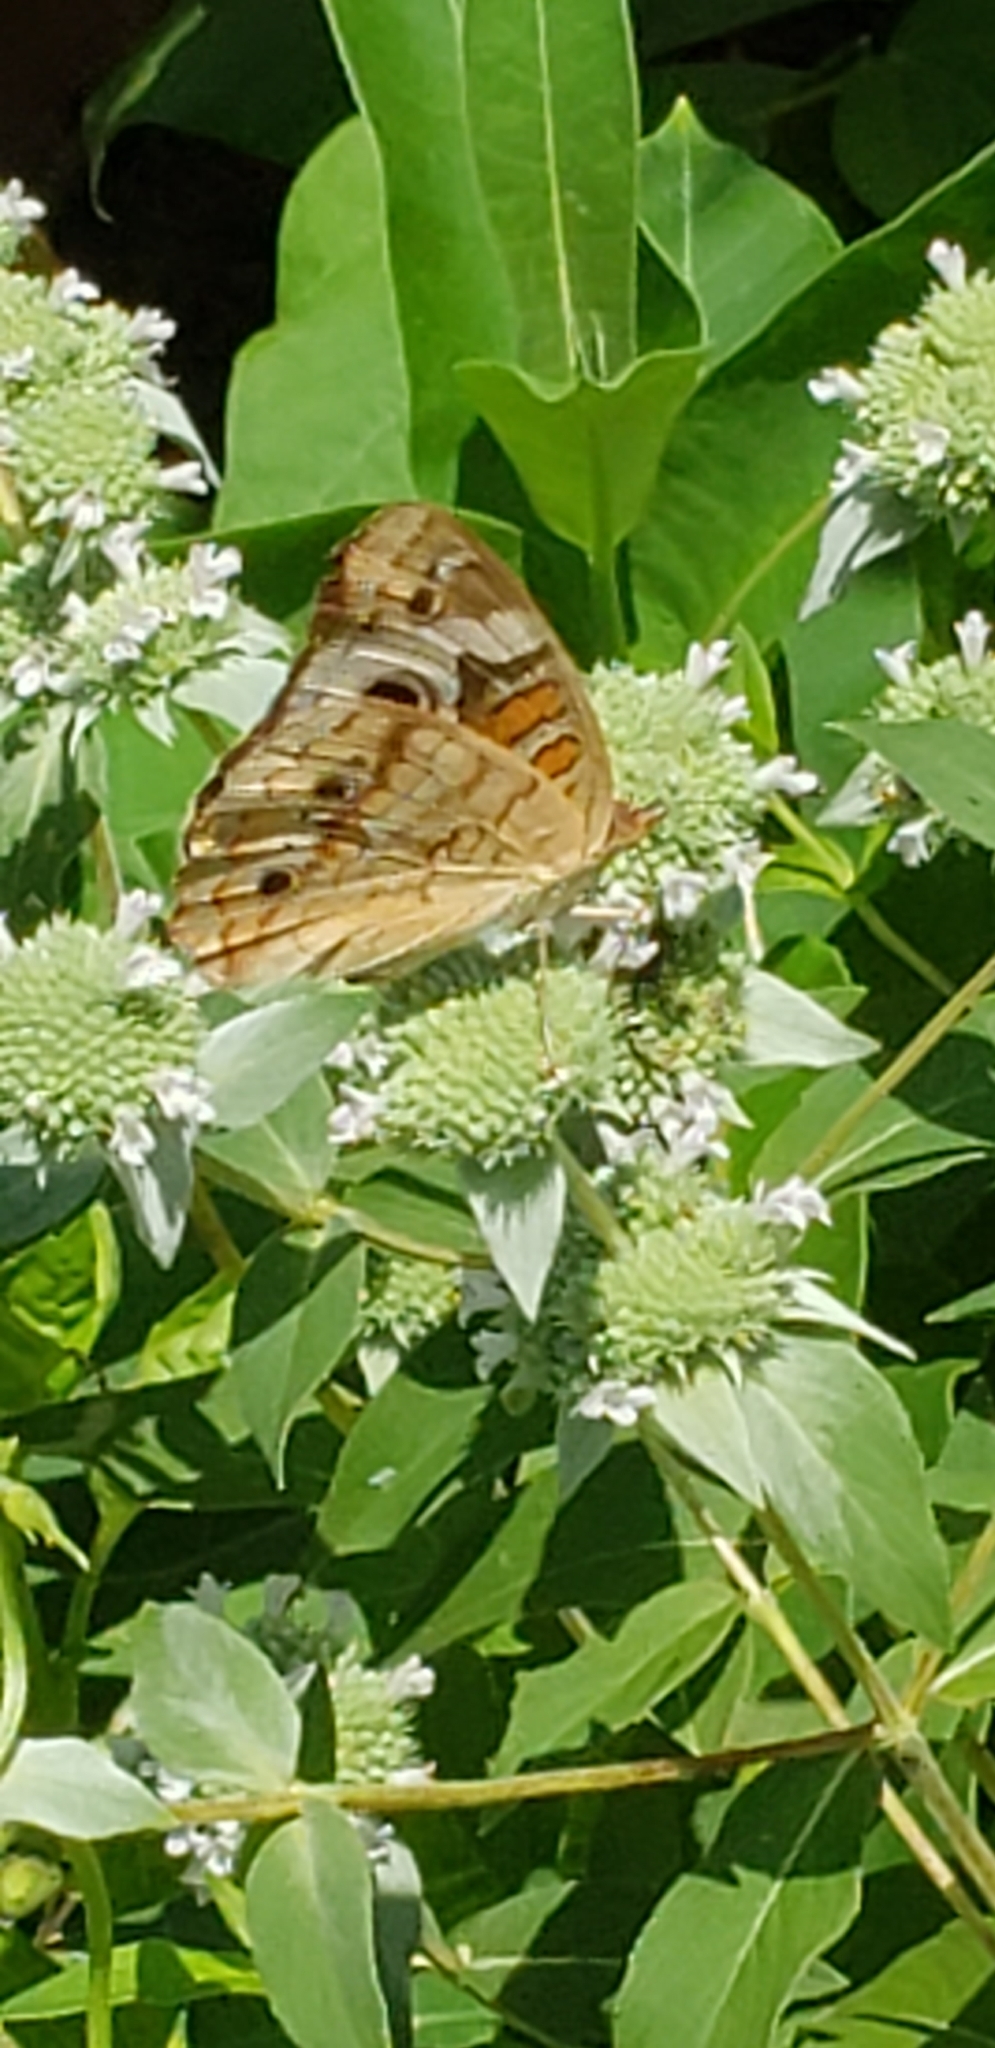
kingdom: Animalia
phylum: Arthropoda
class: Insecta
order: Lepidoptera
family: Nymphalidae
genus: Junonia
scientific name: Junonia coenia
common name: Common buckeye
